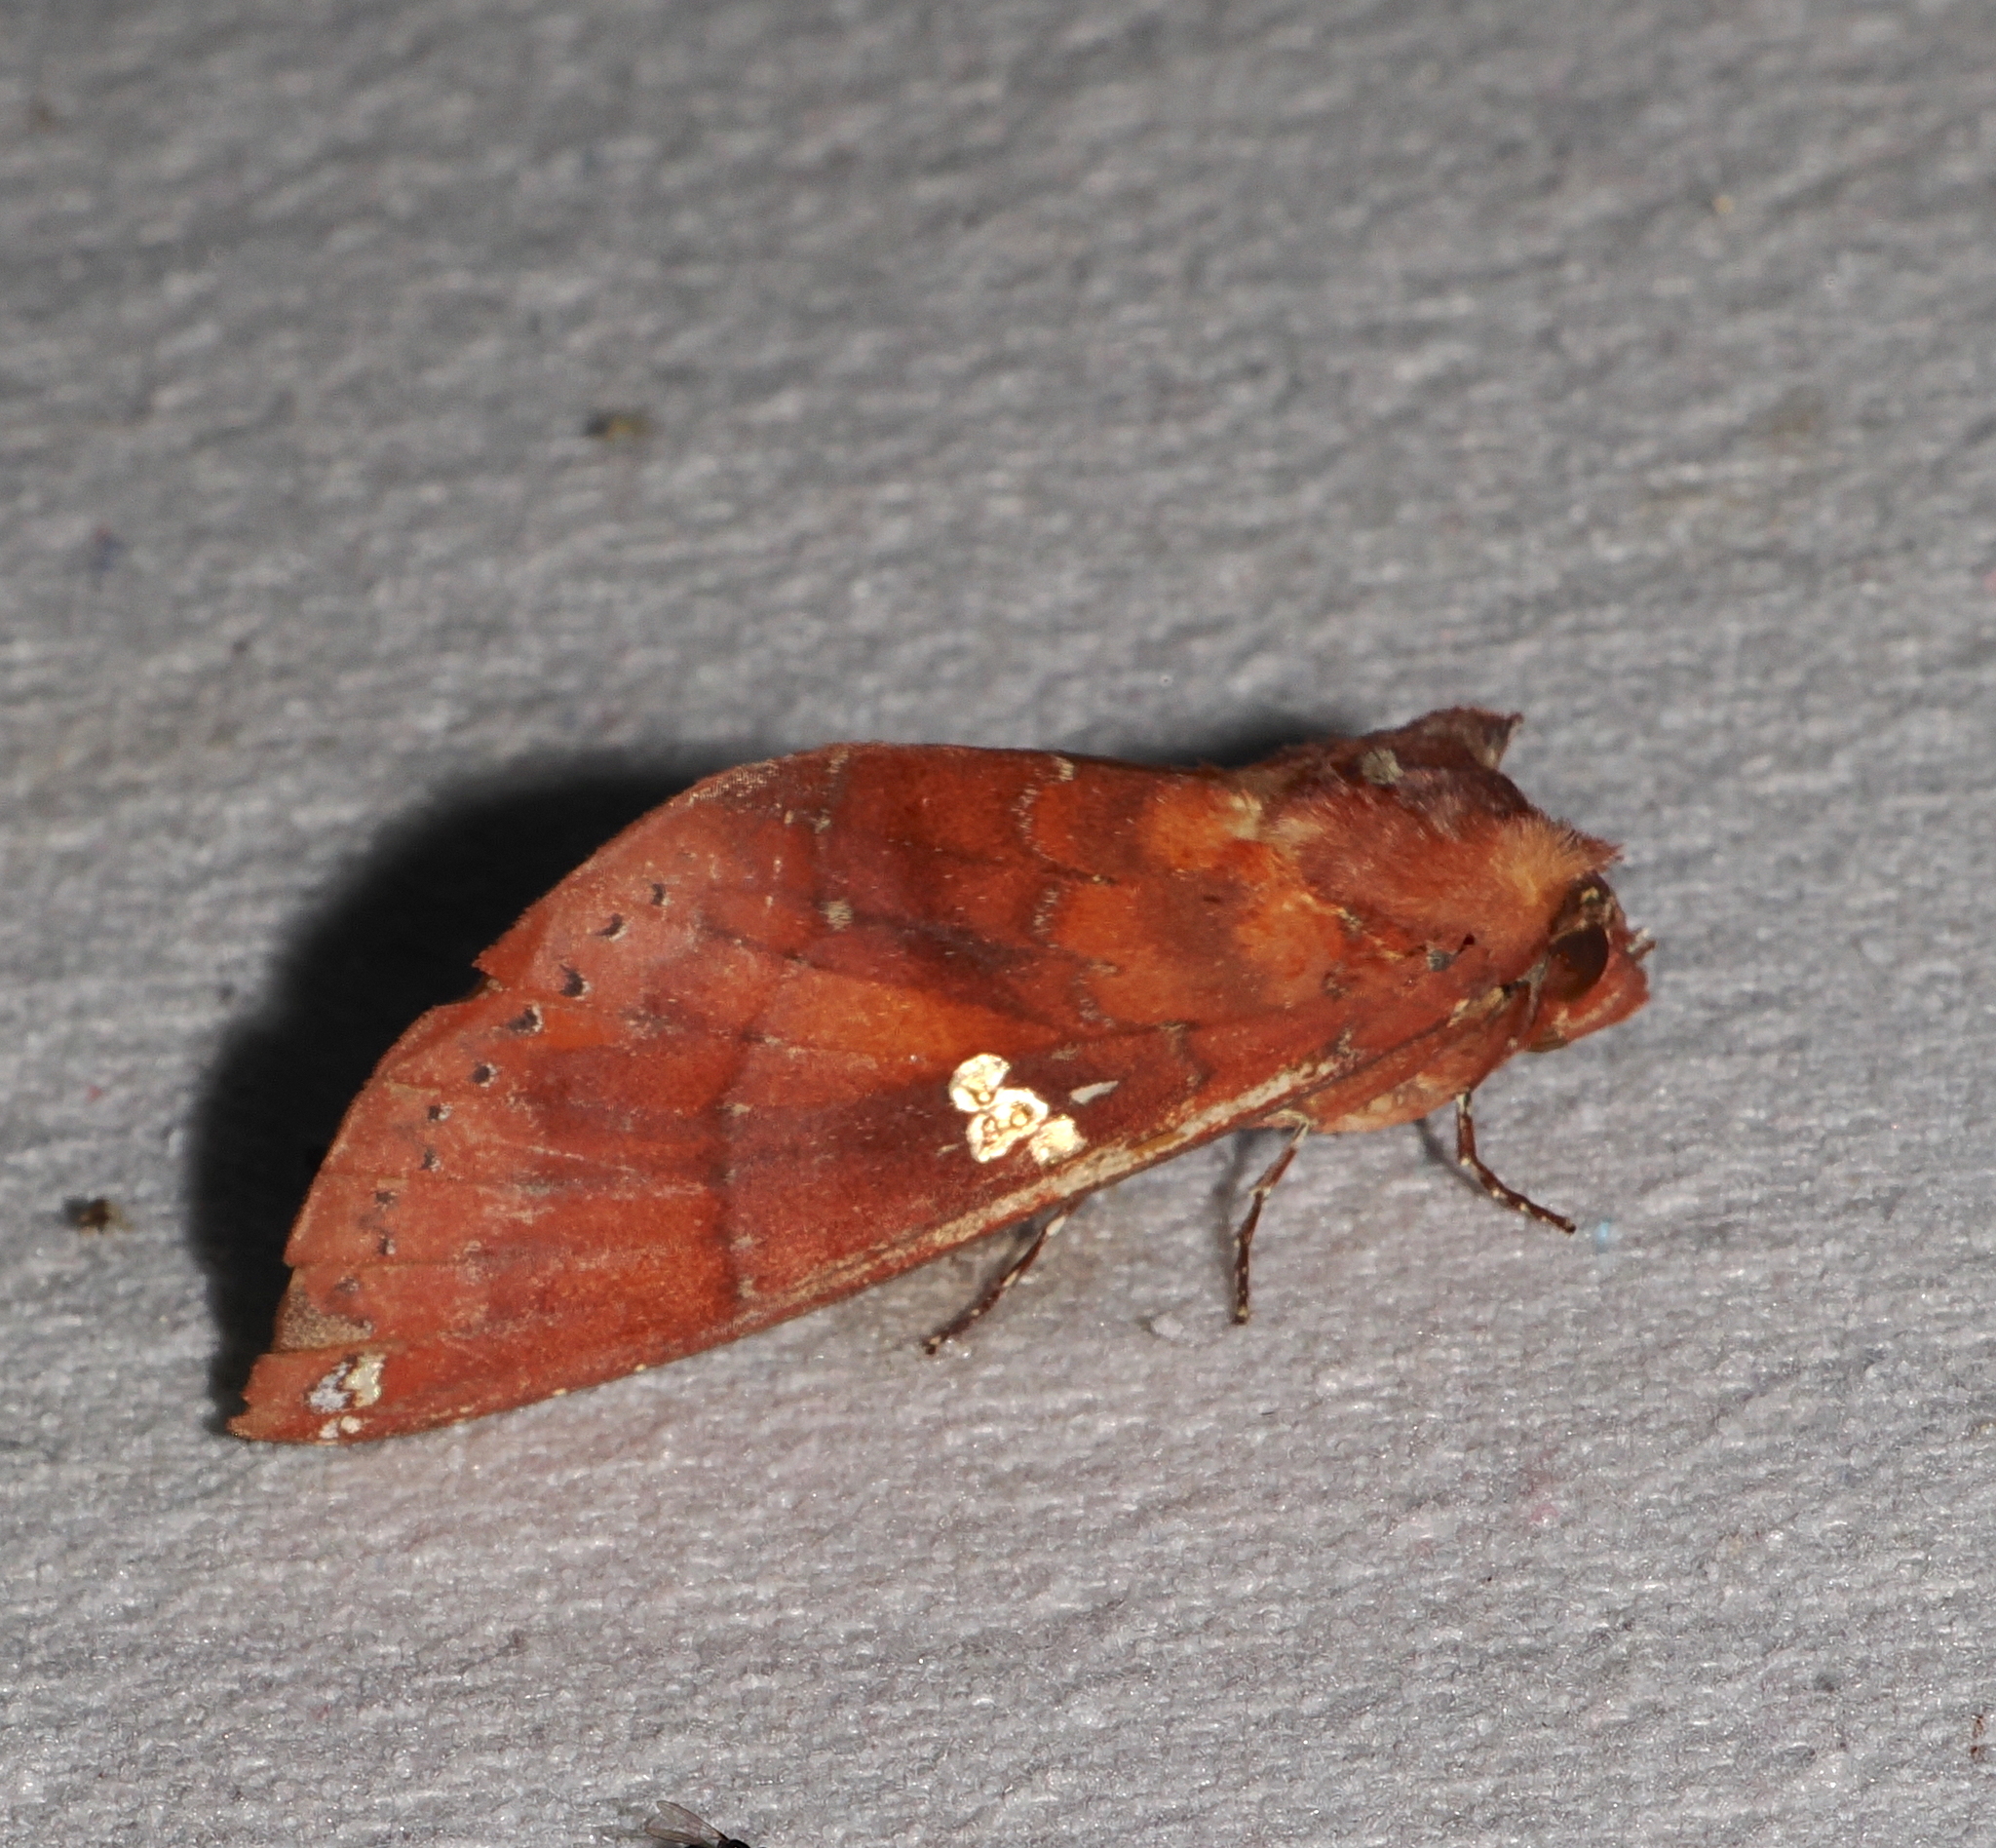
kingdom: Animalia
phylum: Arthropoda
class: Insecta
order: Lepidoptera
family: Notodontidae
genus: Hapigia
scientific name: Hapigia simplex
